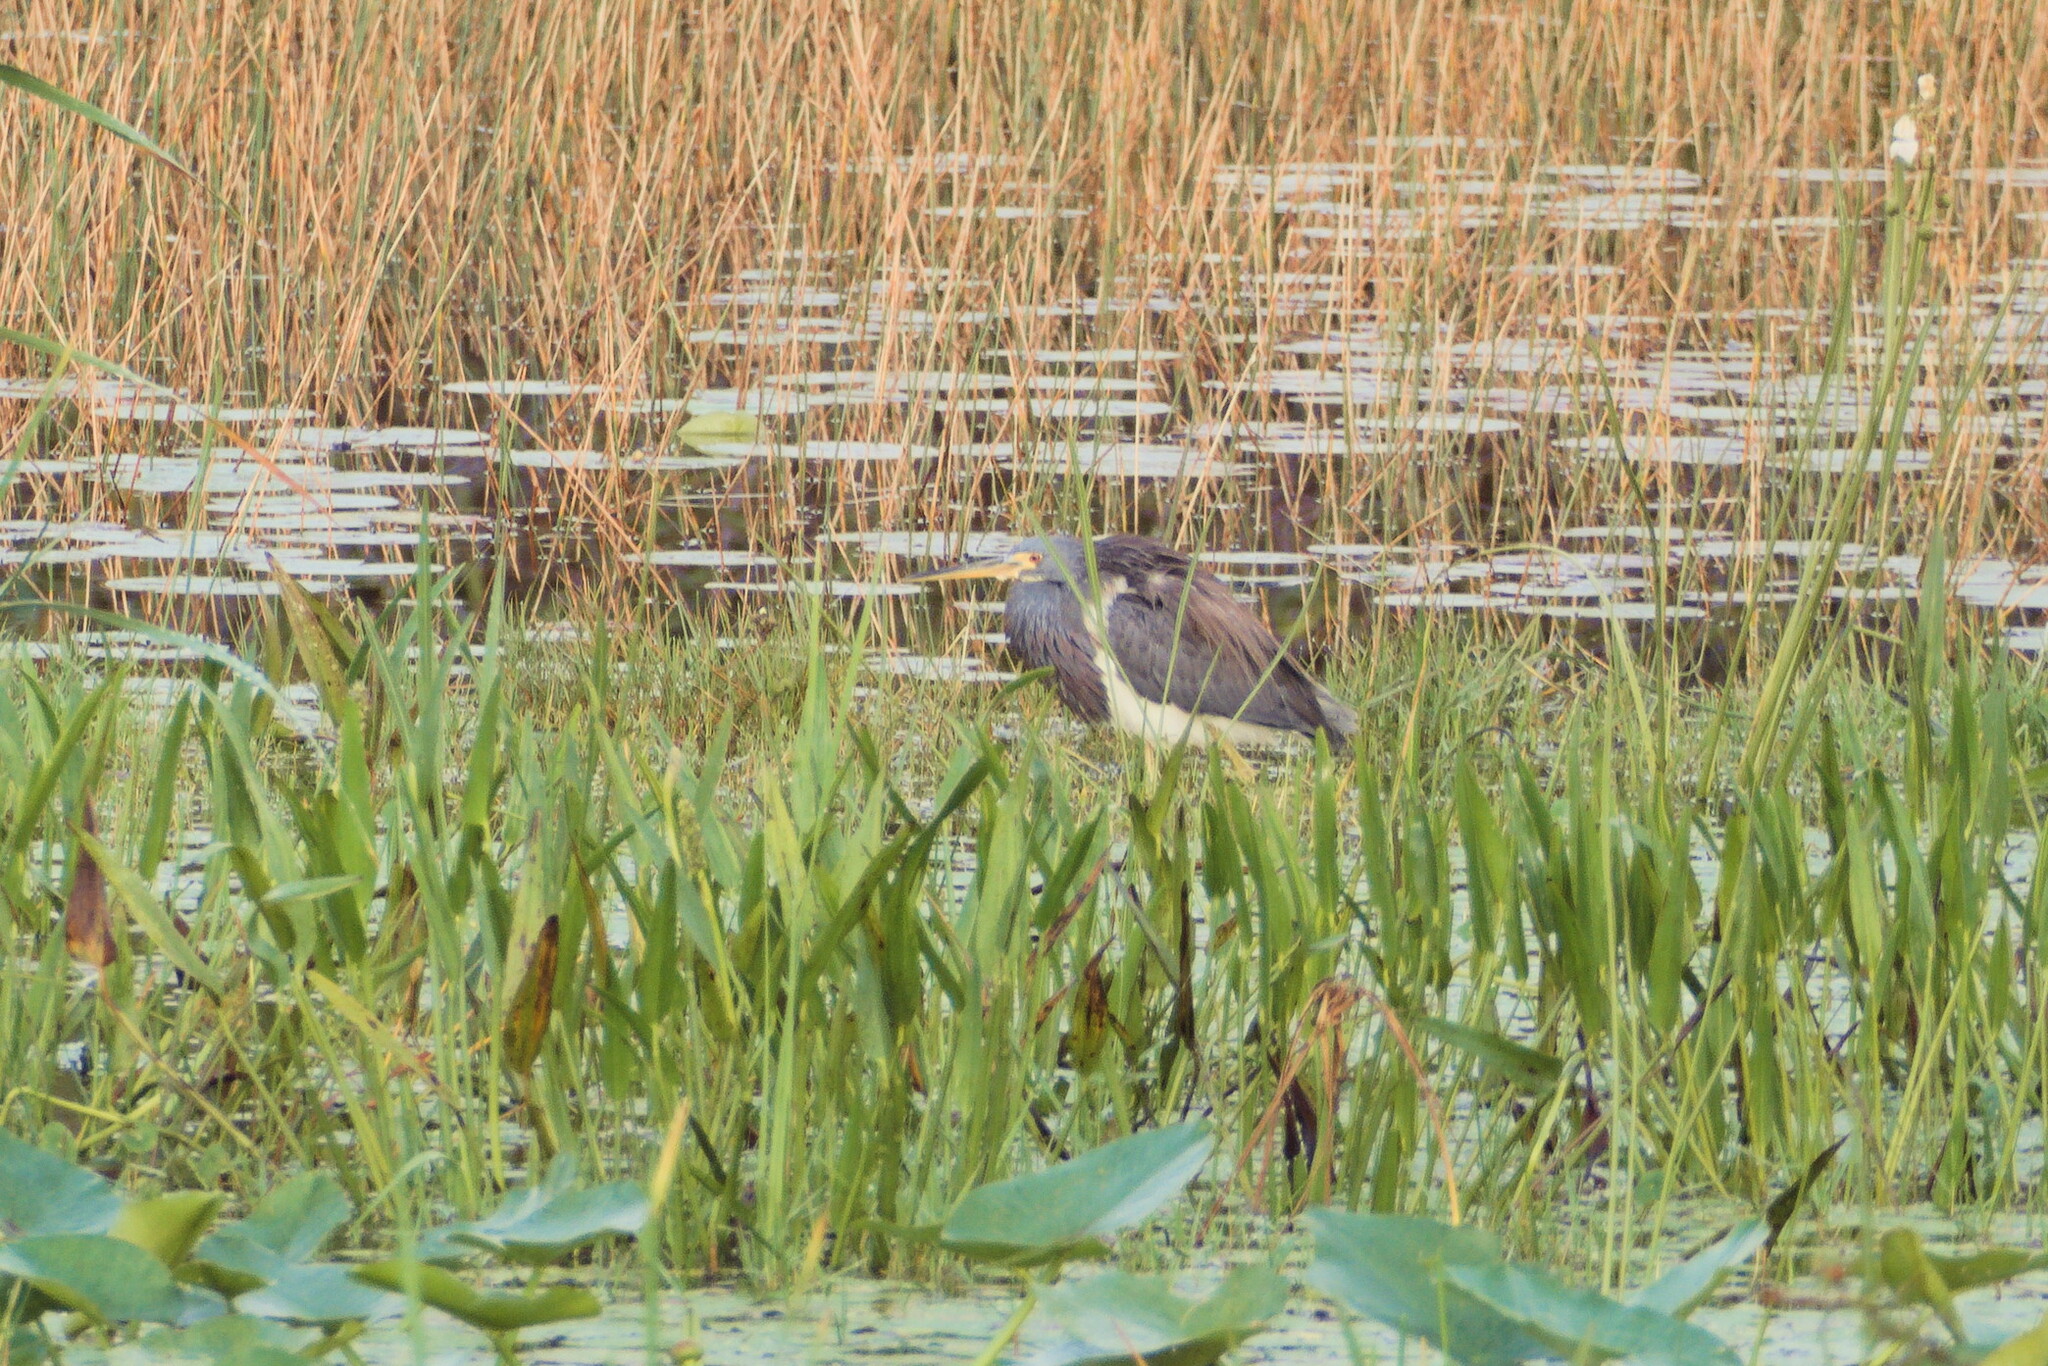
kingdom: Animalia
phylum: Chordata
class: Aves
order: Pelecaniformes
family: Ardeidae
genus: Egretta
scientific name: Egretta tricolor
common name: Tricolored heron
